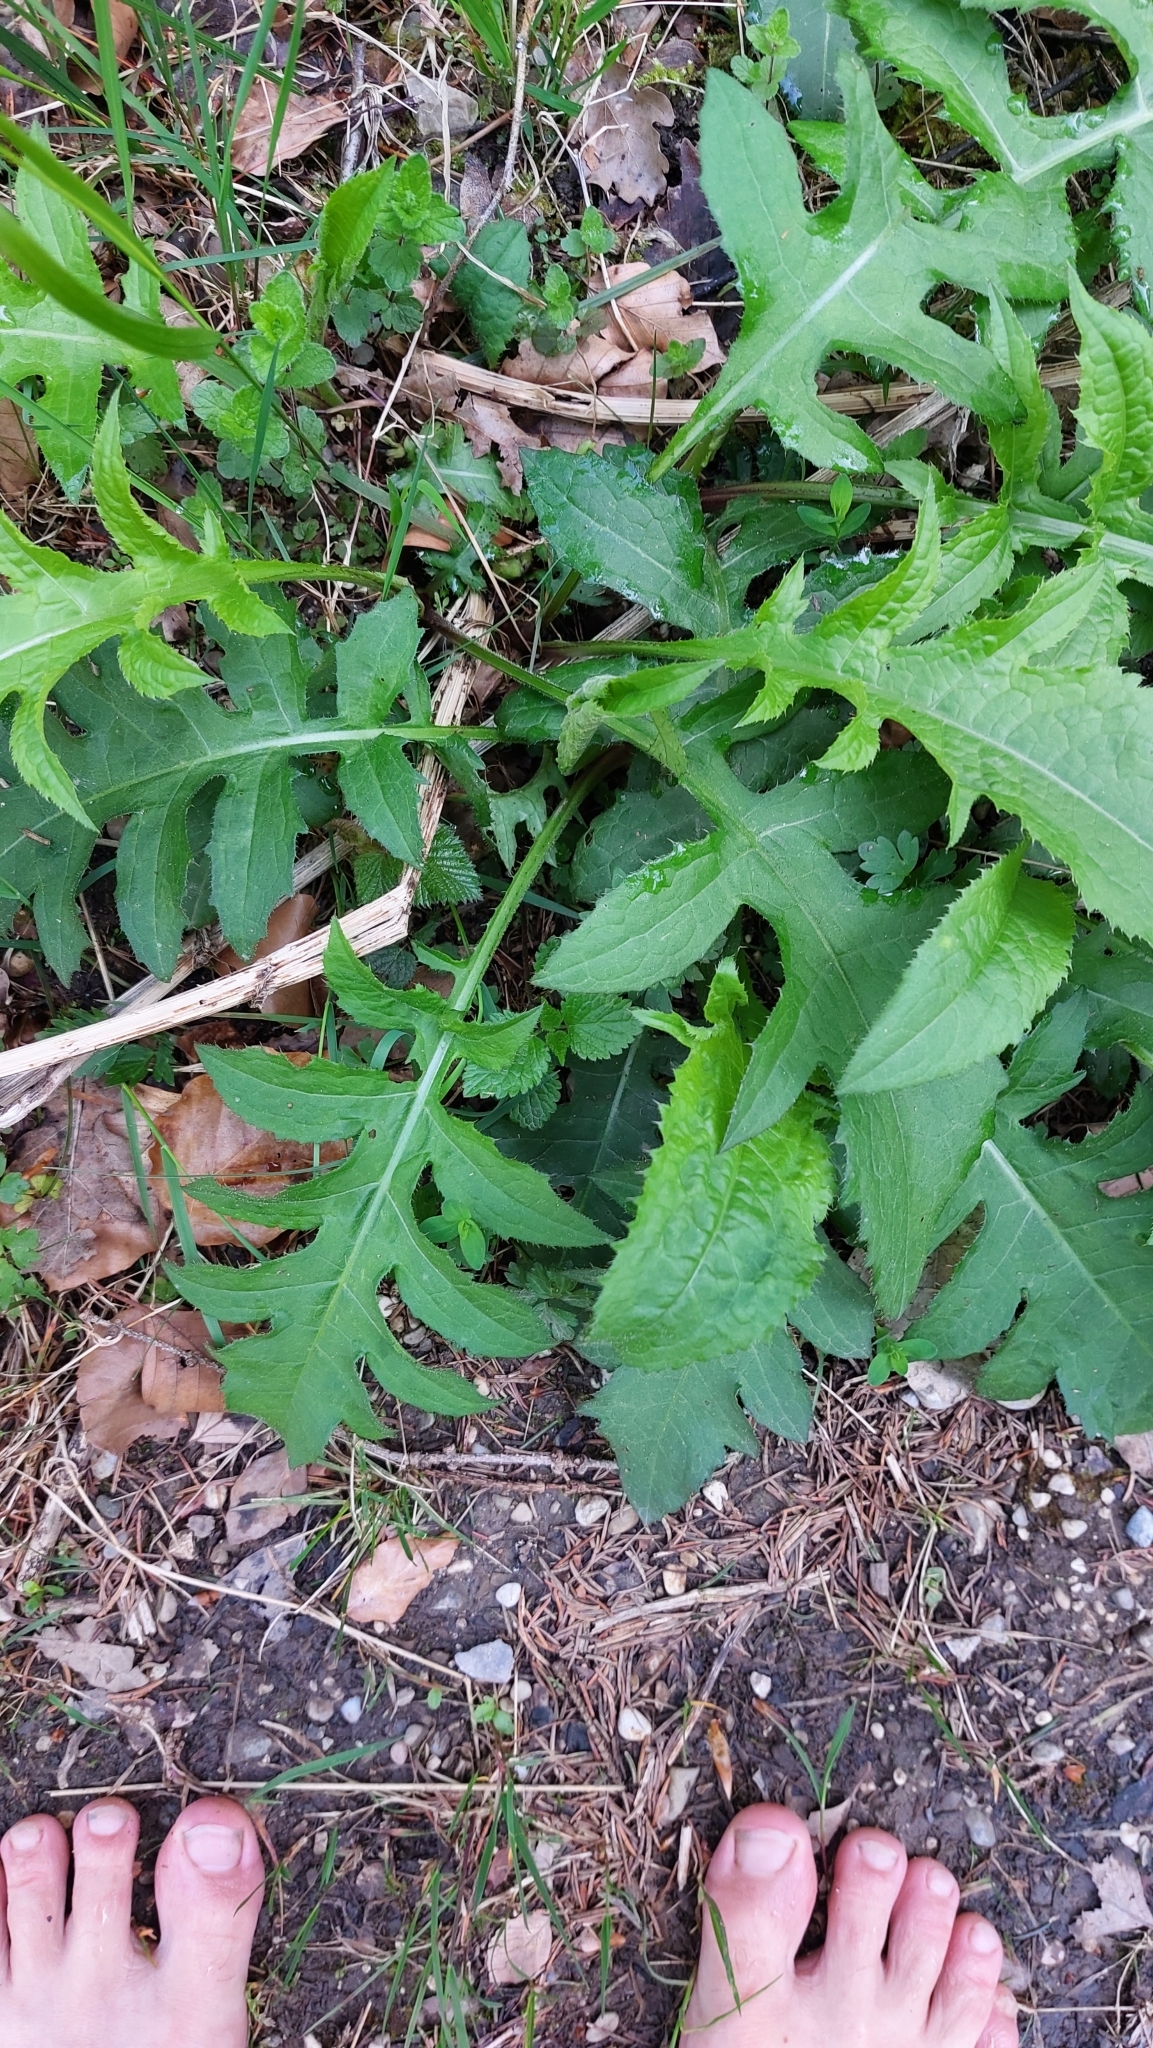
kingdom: Plantae
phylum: Tracheophyta
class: Magnoliopsida
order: Asterales
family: Asteraceae
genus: Cirsium
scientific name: Cirsium oleraceum
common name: Cabbage thistle
